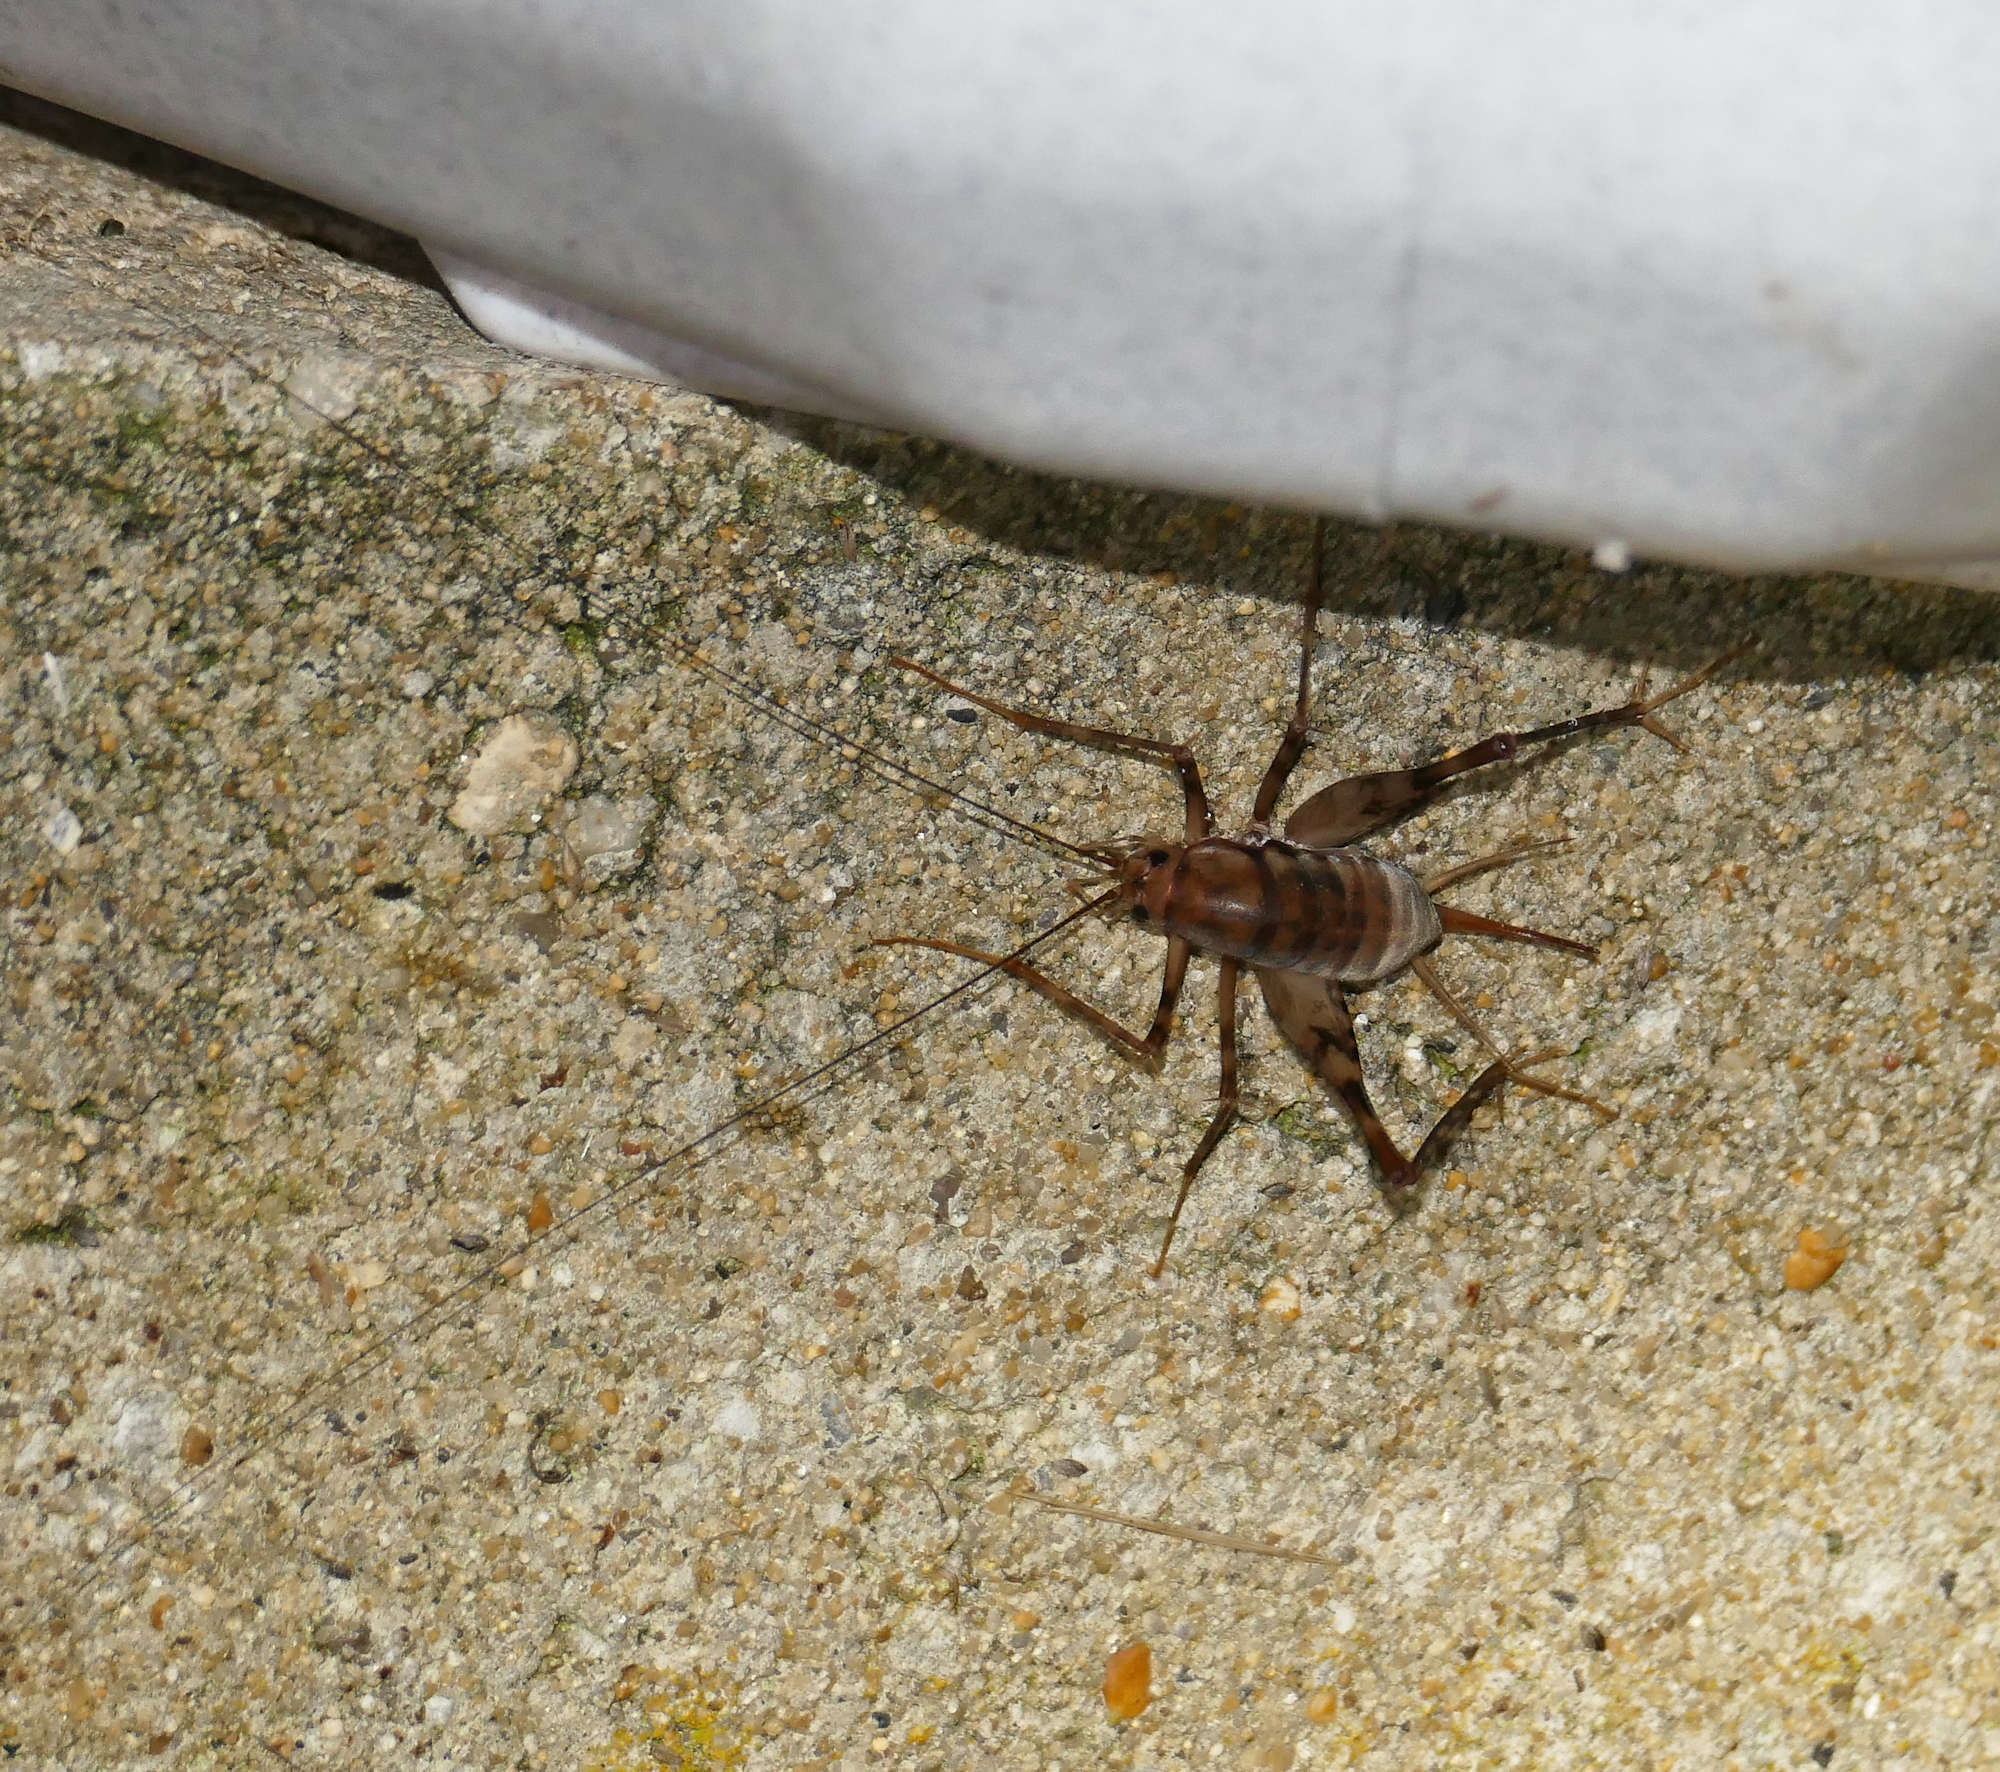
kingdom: Animalia
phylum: Arthropoda
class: Insecta
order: Orthoptera
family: Rhaphidophoridae
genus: Tachycines
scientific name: Tachycines asynamorus
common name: Greenhouse camel cricket
